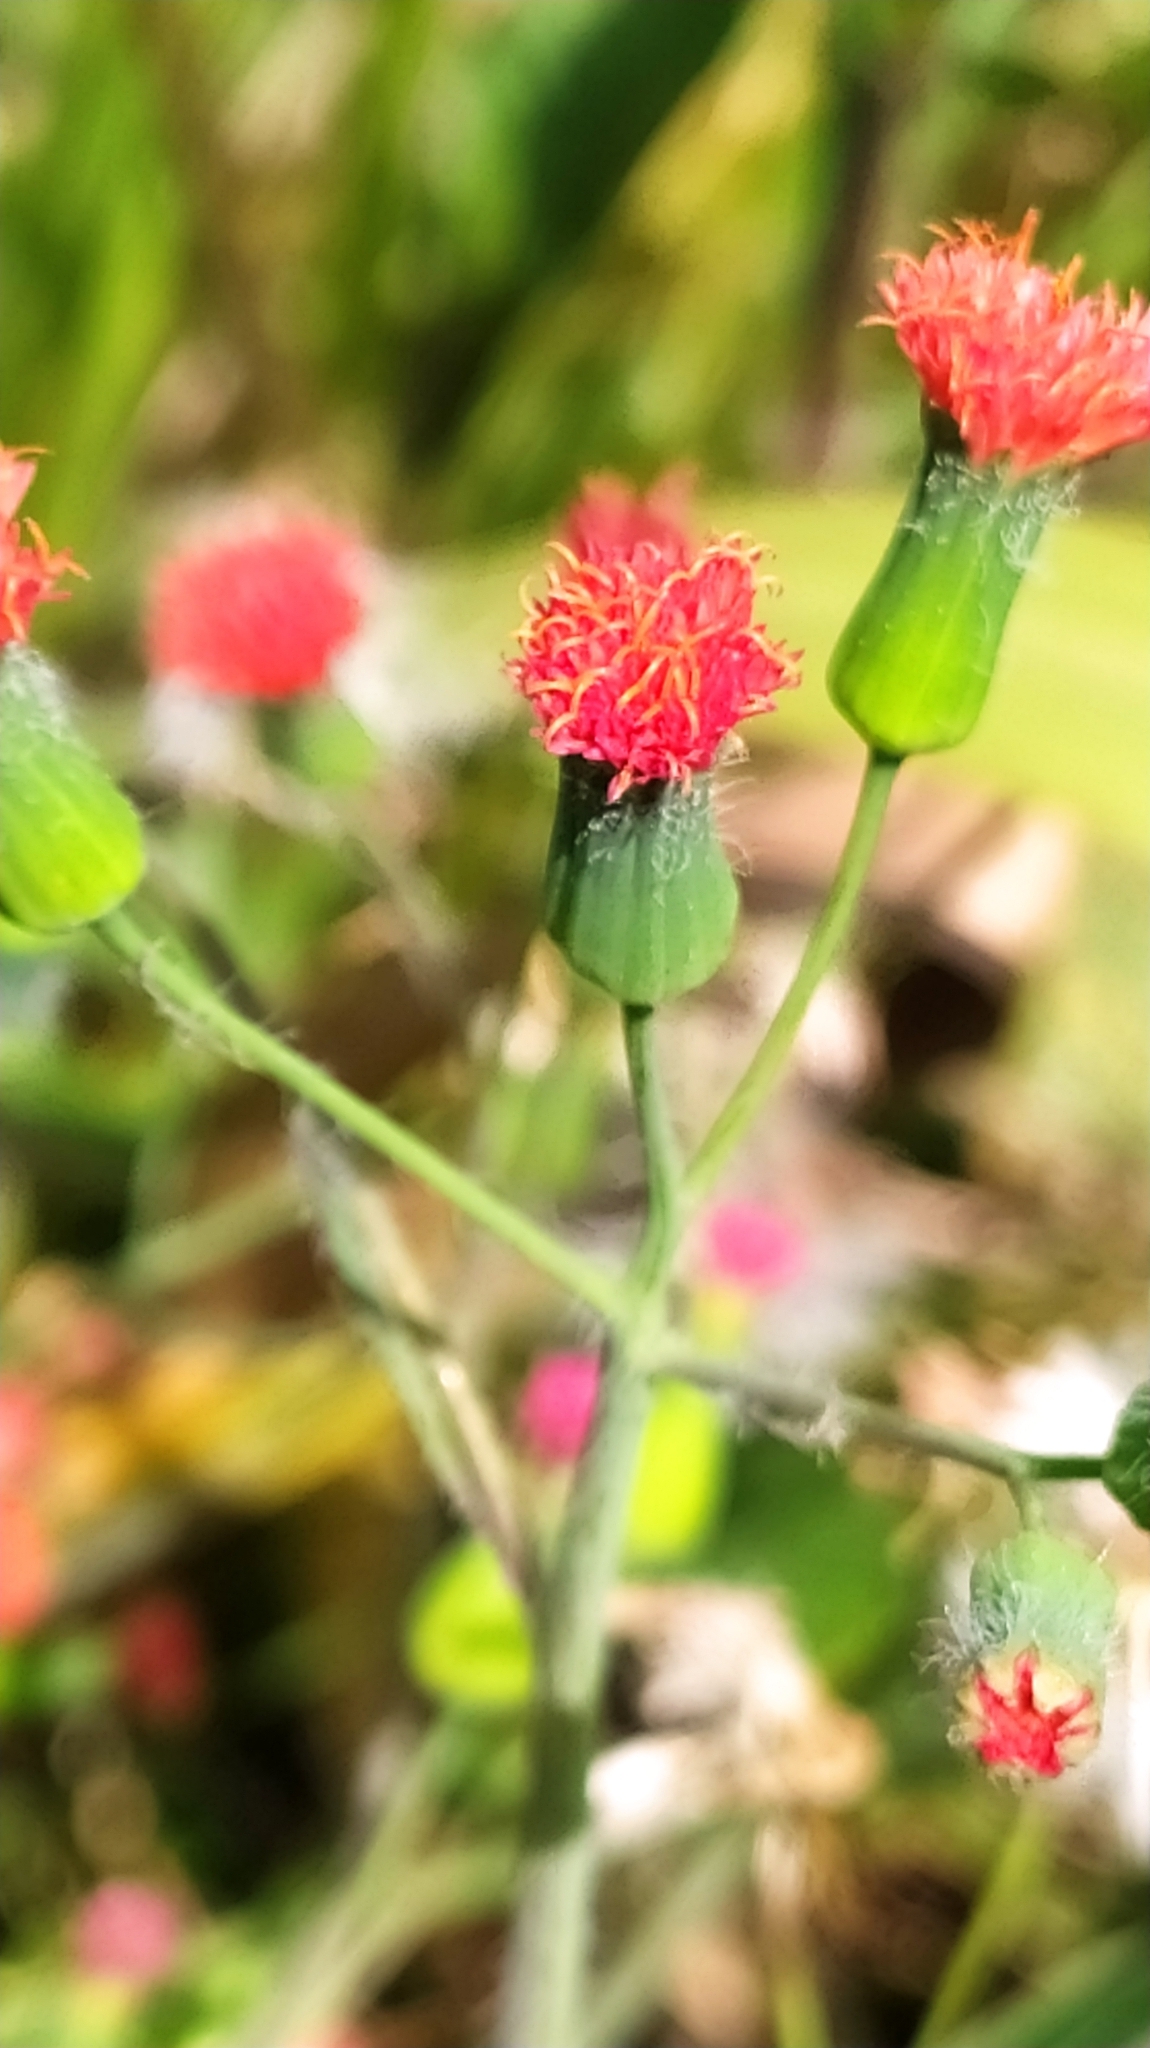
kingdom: Plantae
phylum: Tracheophyta
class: Magnoliopsida
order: Asterales
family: Asteraceae
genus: Emilia
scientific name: Emilia fosbergii
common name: Florida tasselflower
